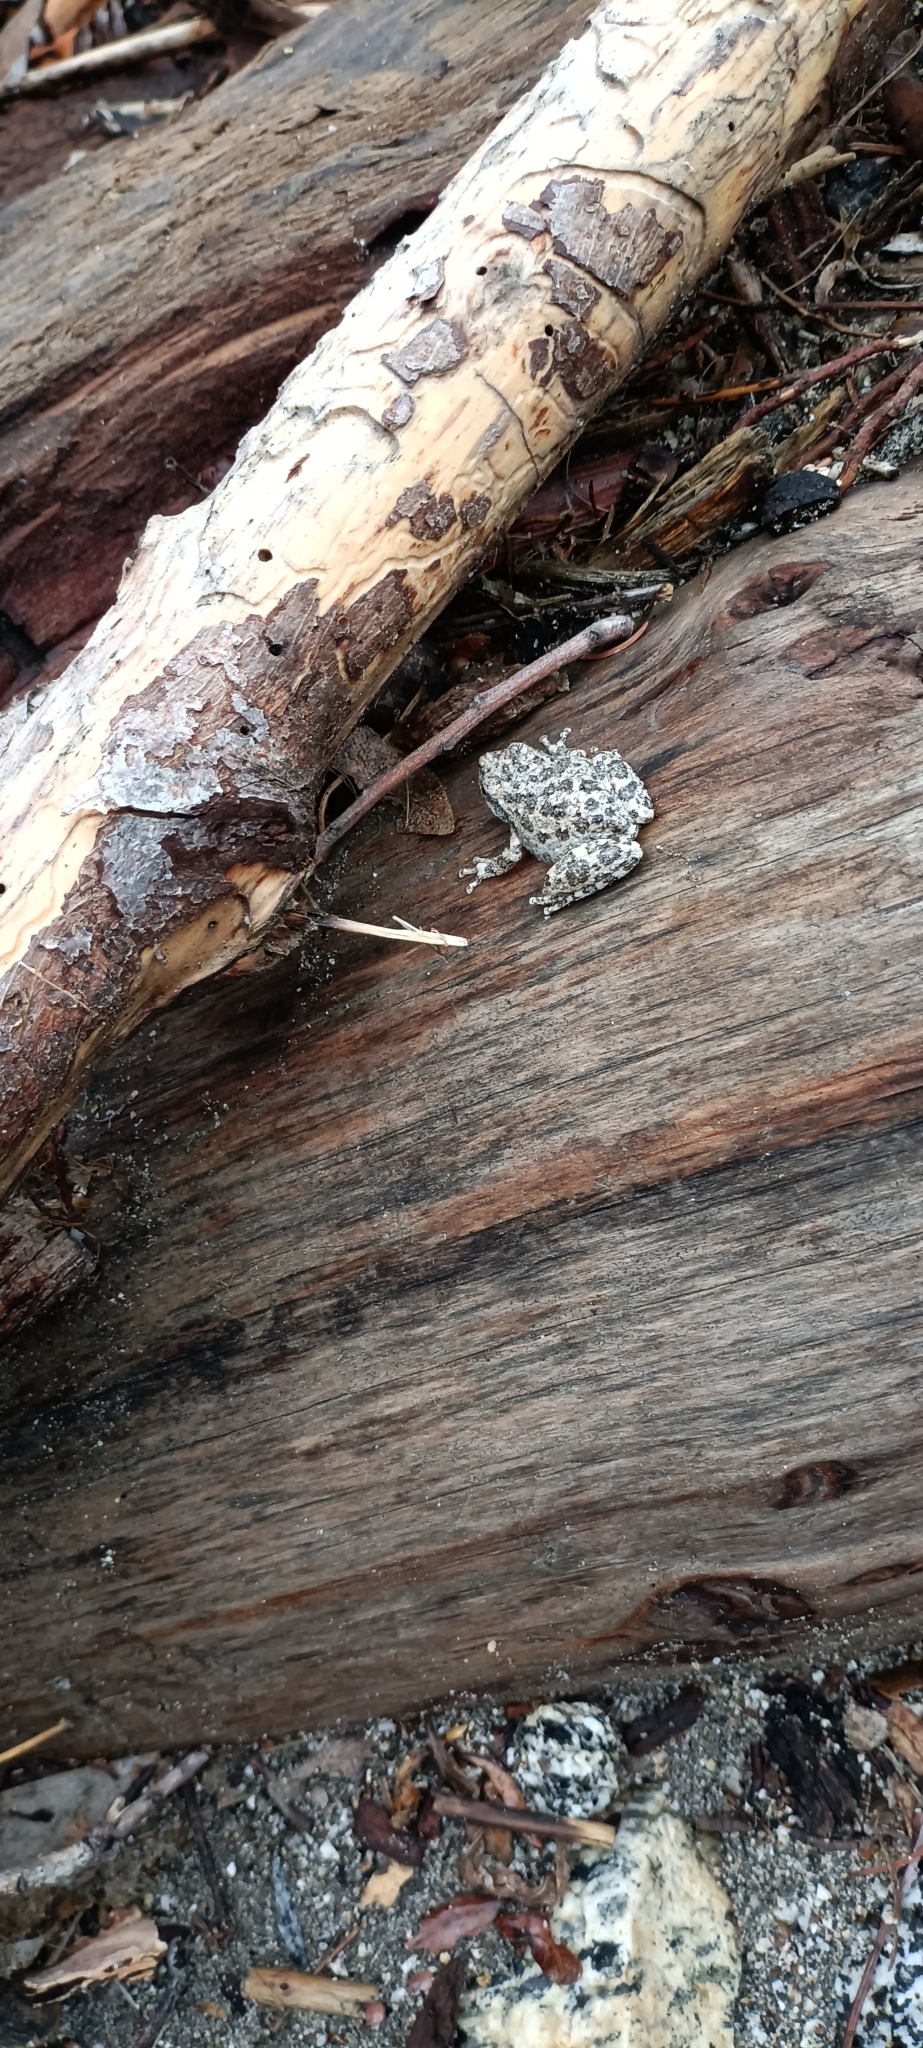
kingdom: Animalia
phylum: Chordata
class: Amphibia
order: Anura
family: Hylidae
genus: Pseudacris
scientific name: Pseudacris cadaverina
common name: California chorus frog
